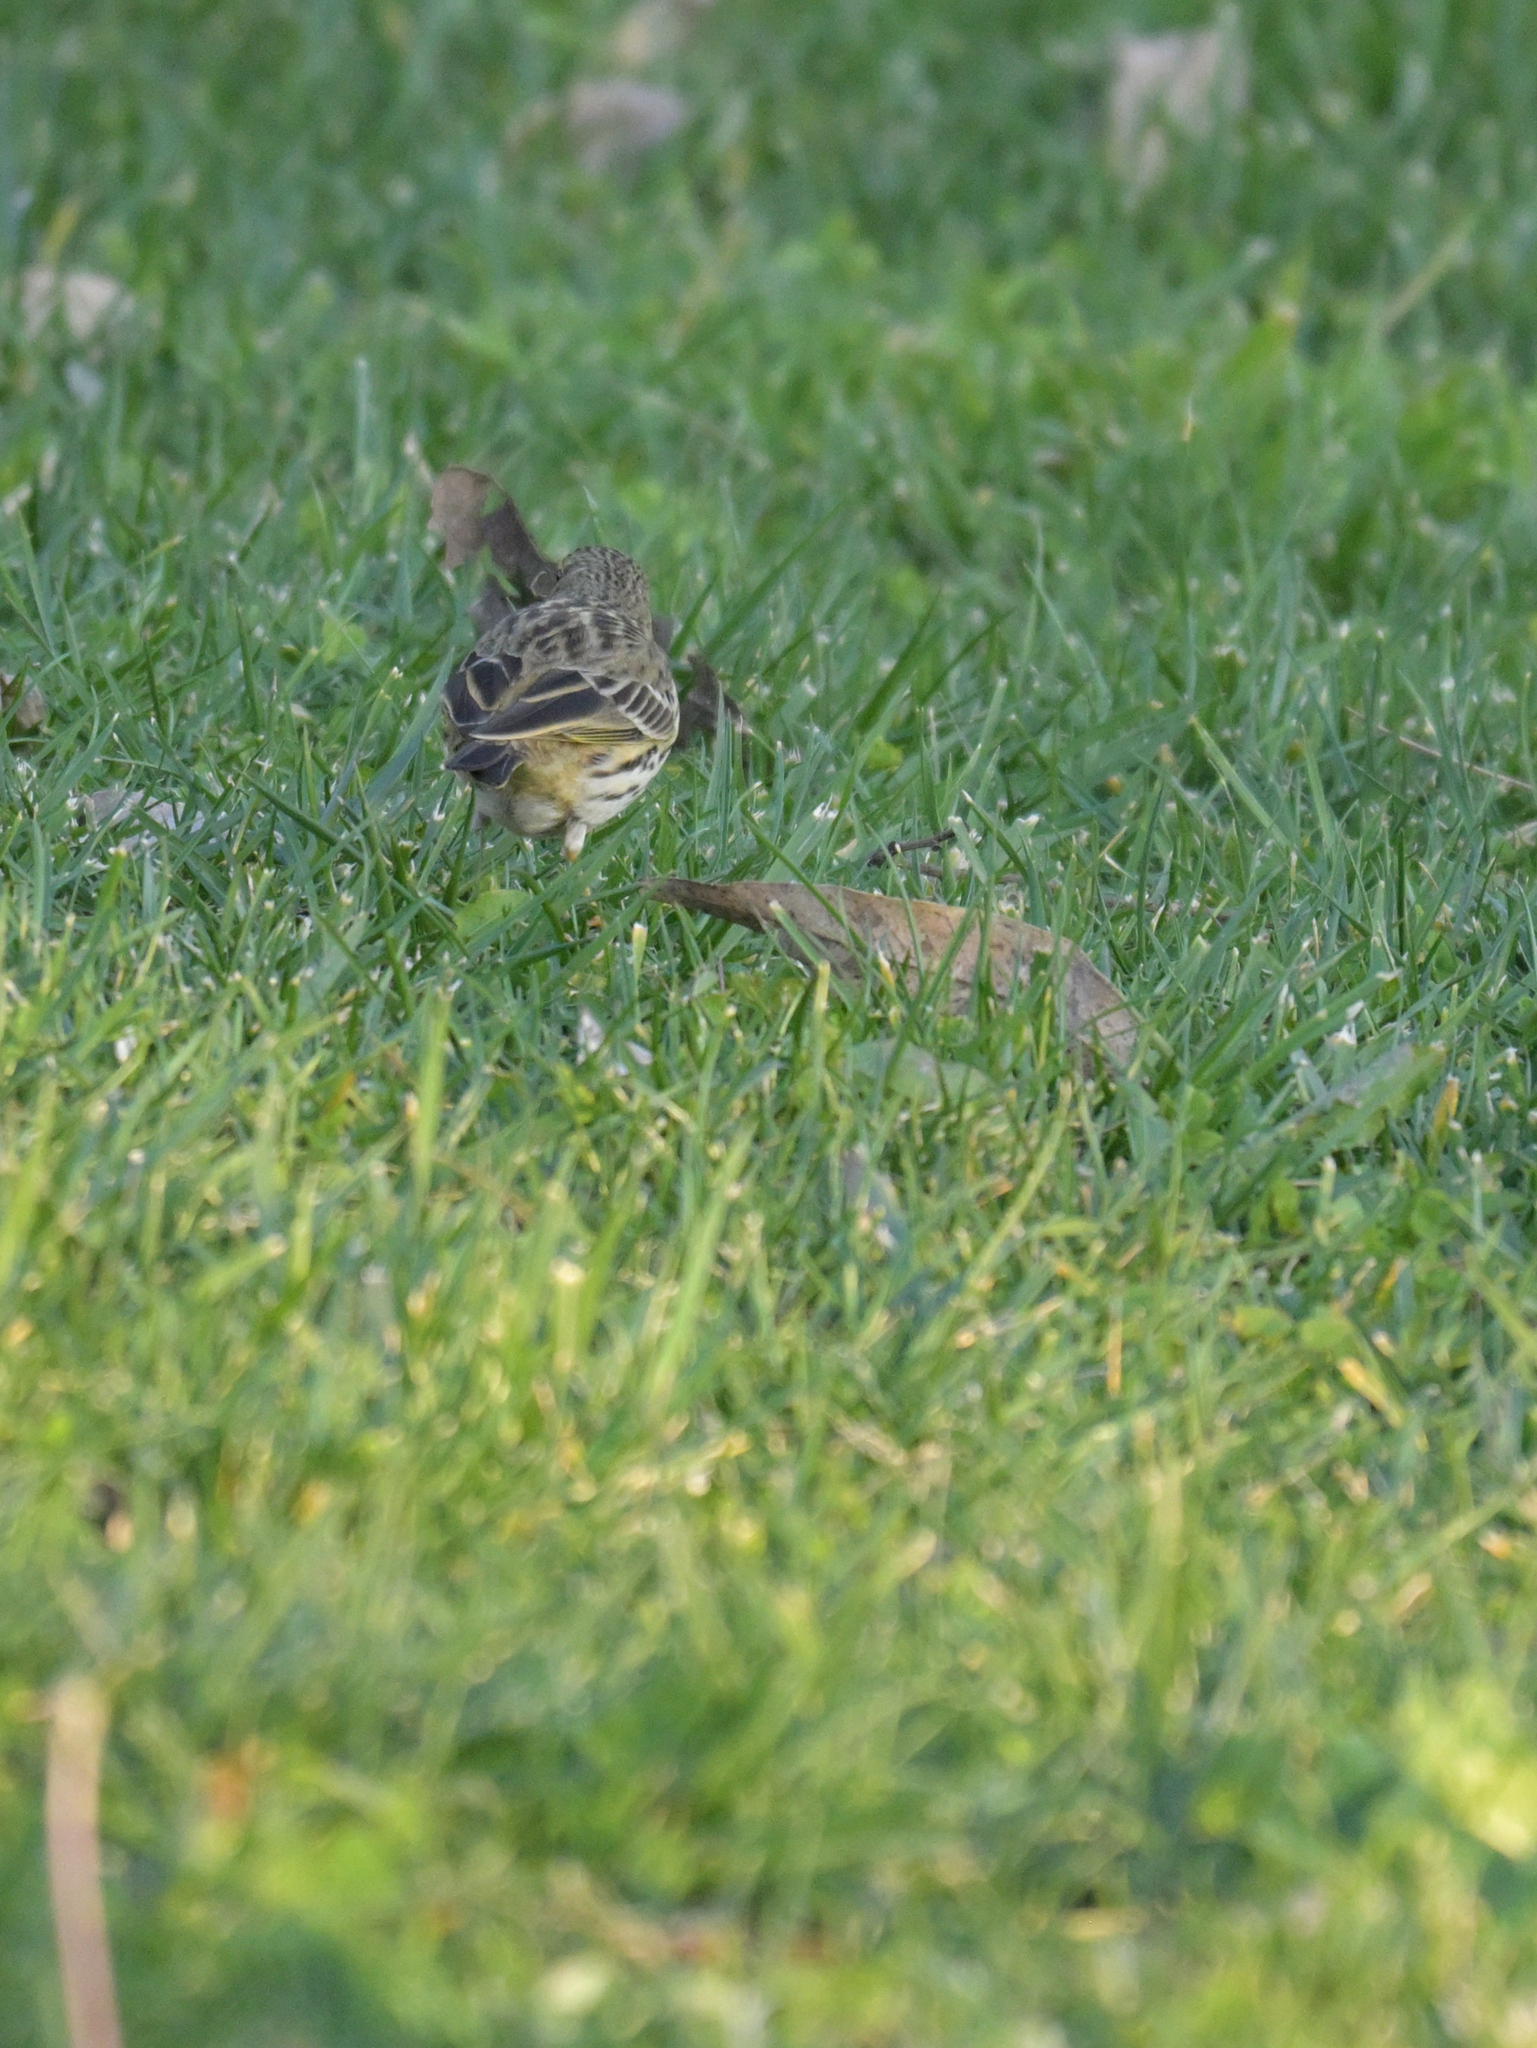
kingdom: Animalia
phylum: Chordata
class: Aves
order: Passeriformes
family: Motacillidae
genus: Anthus
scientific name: Anthus pratensis
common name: Meadow pipit
